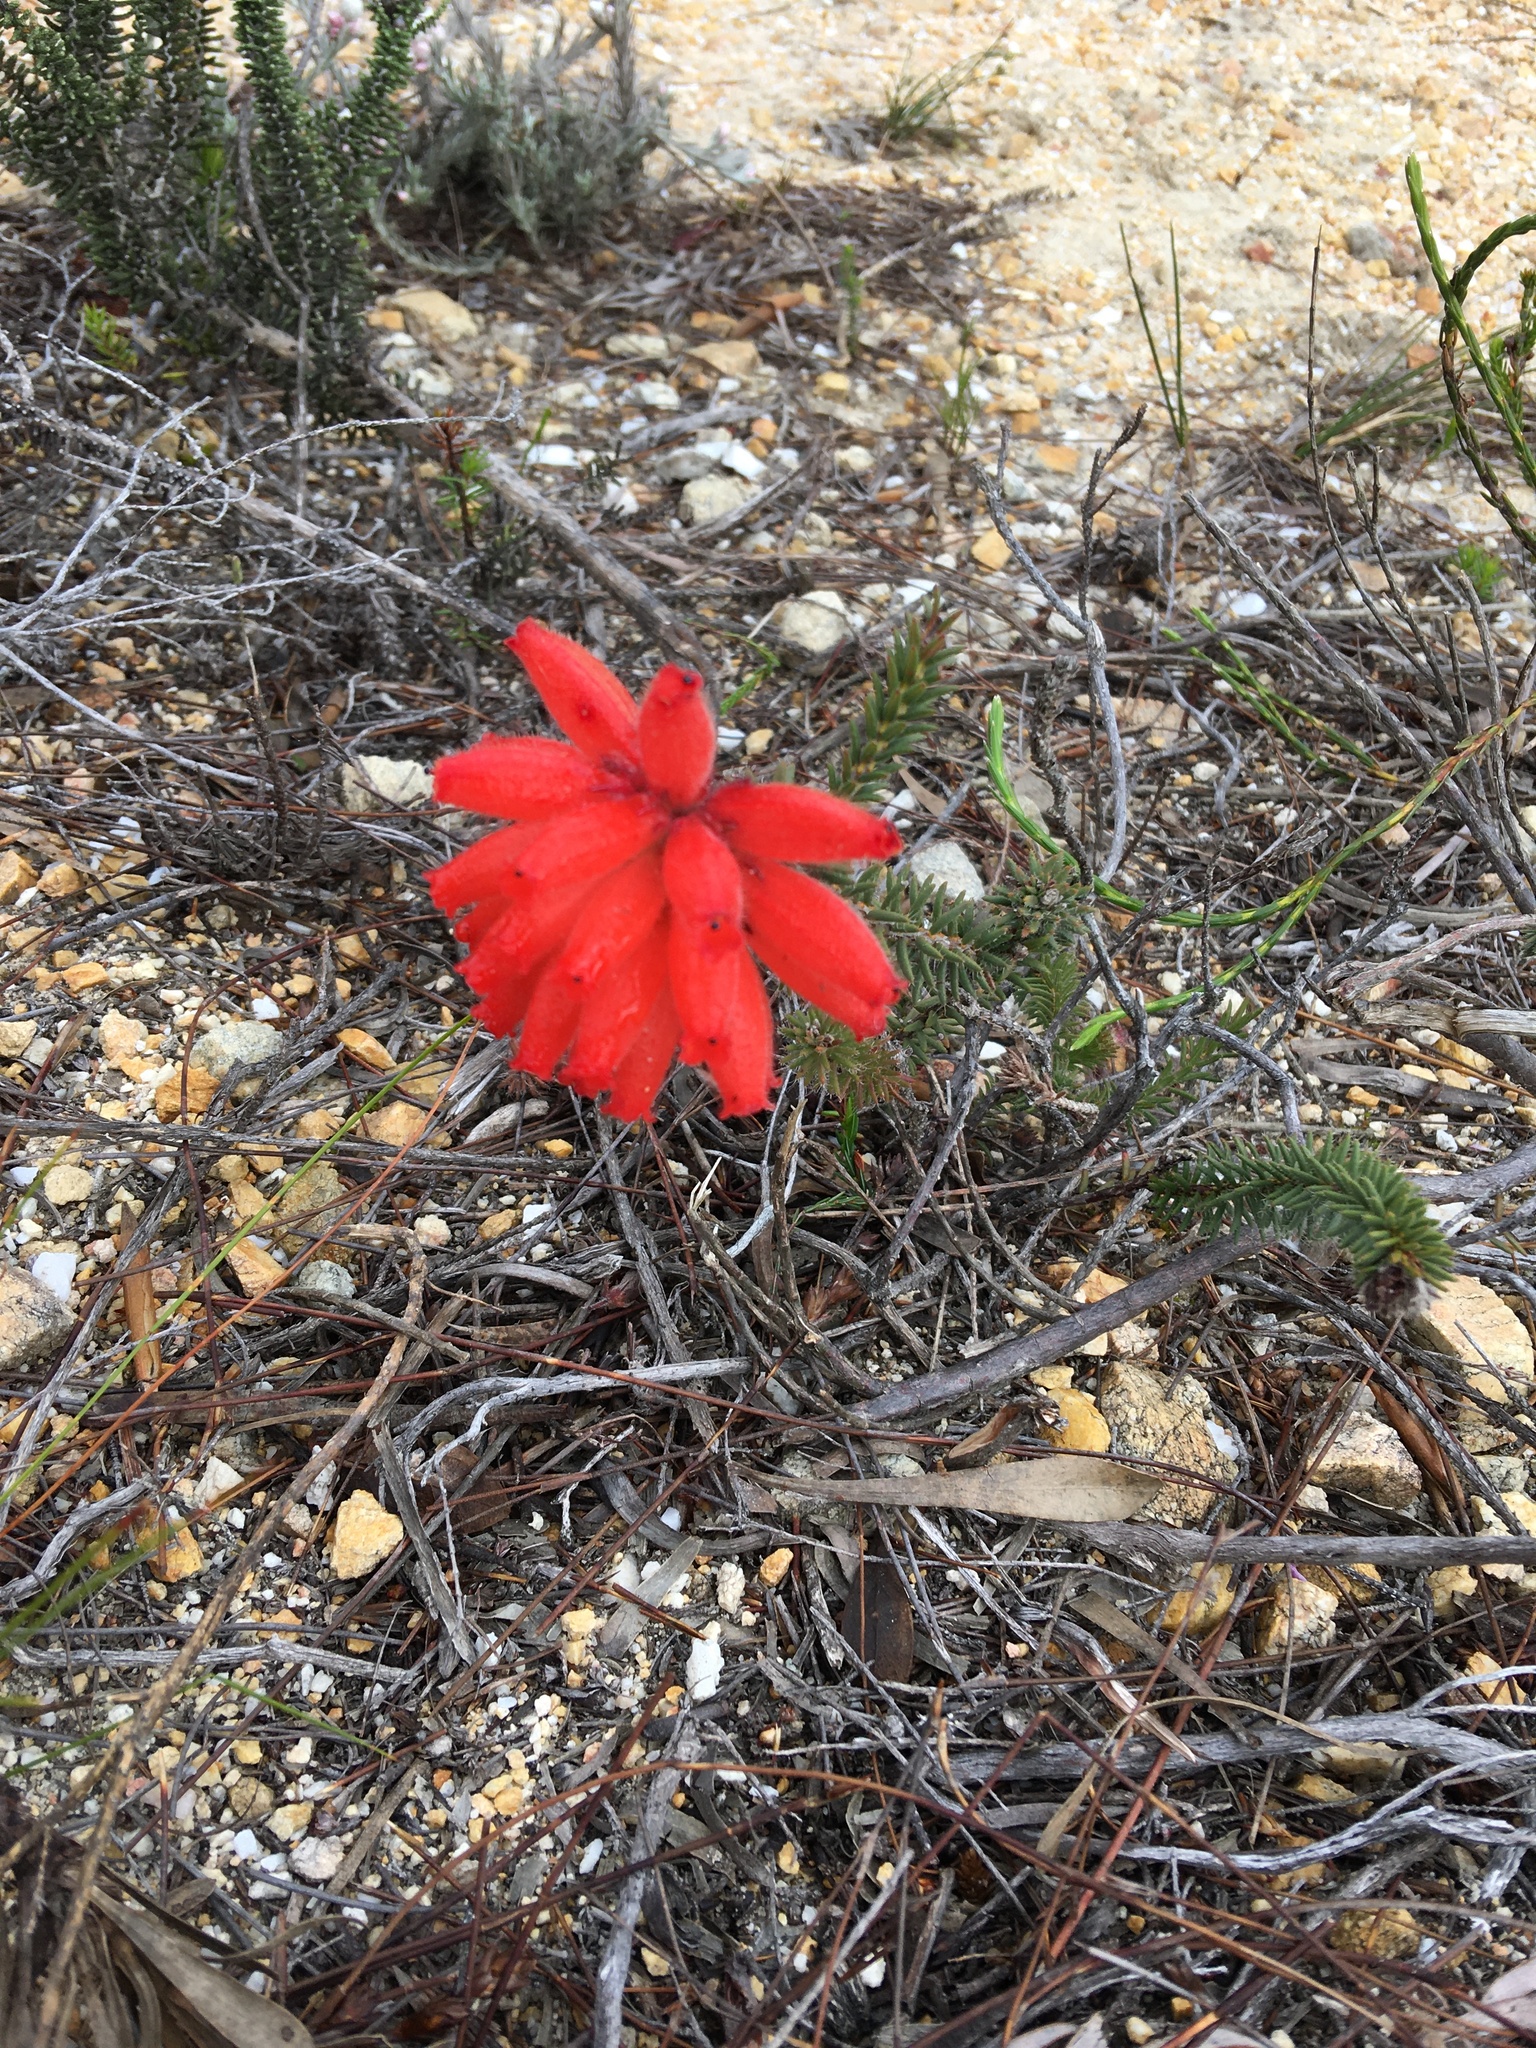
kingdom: Plantae
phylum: Tracheophyta
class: Magnoliopsida
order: Ericales
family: Ericaceae
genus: Erica
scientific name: Erica cerinthoides
